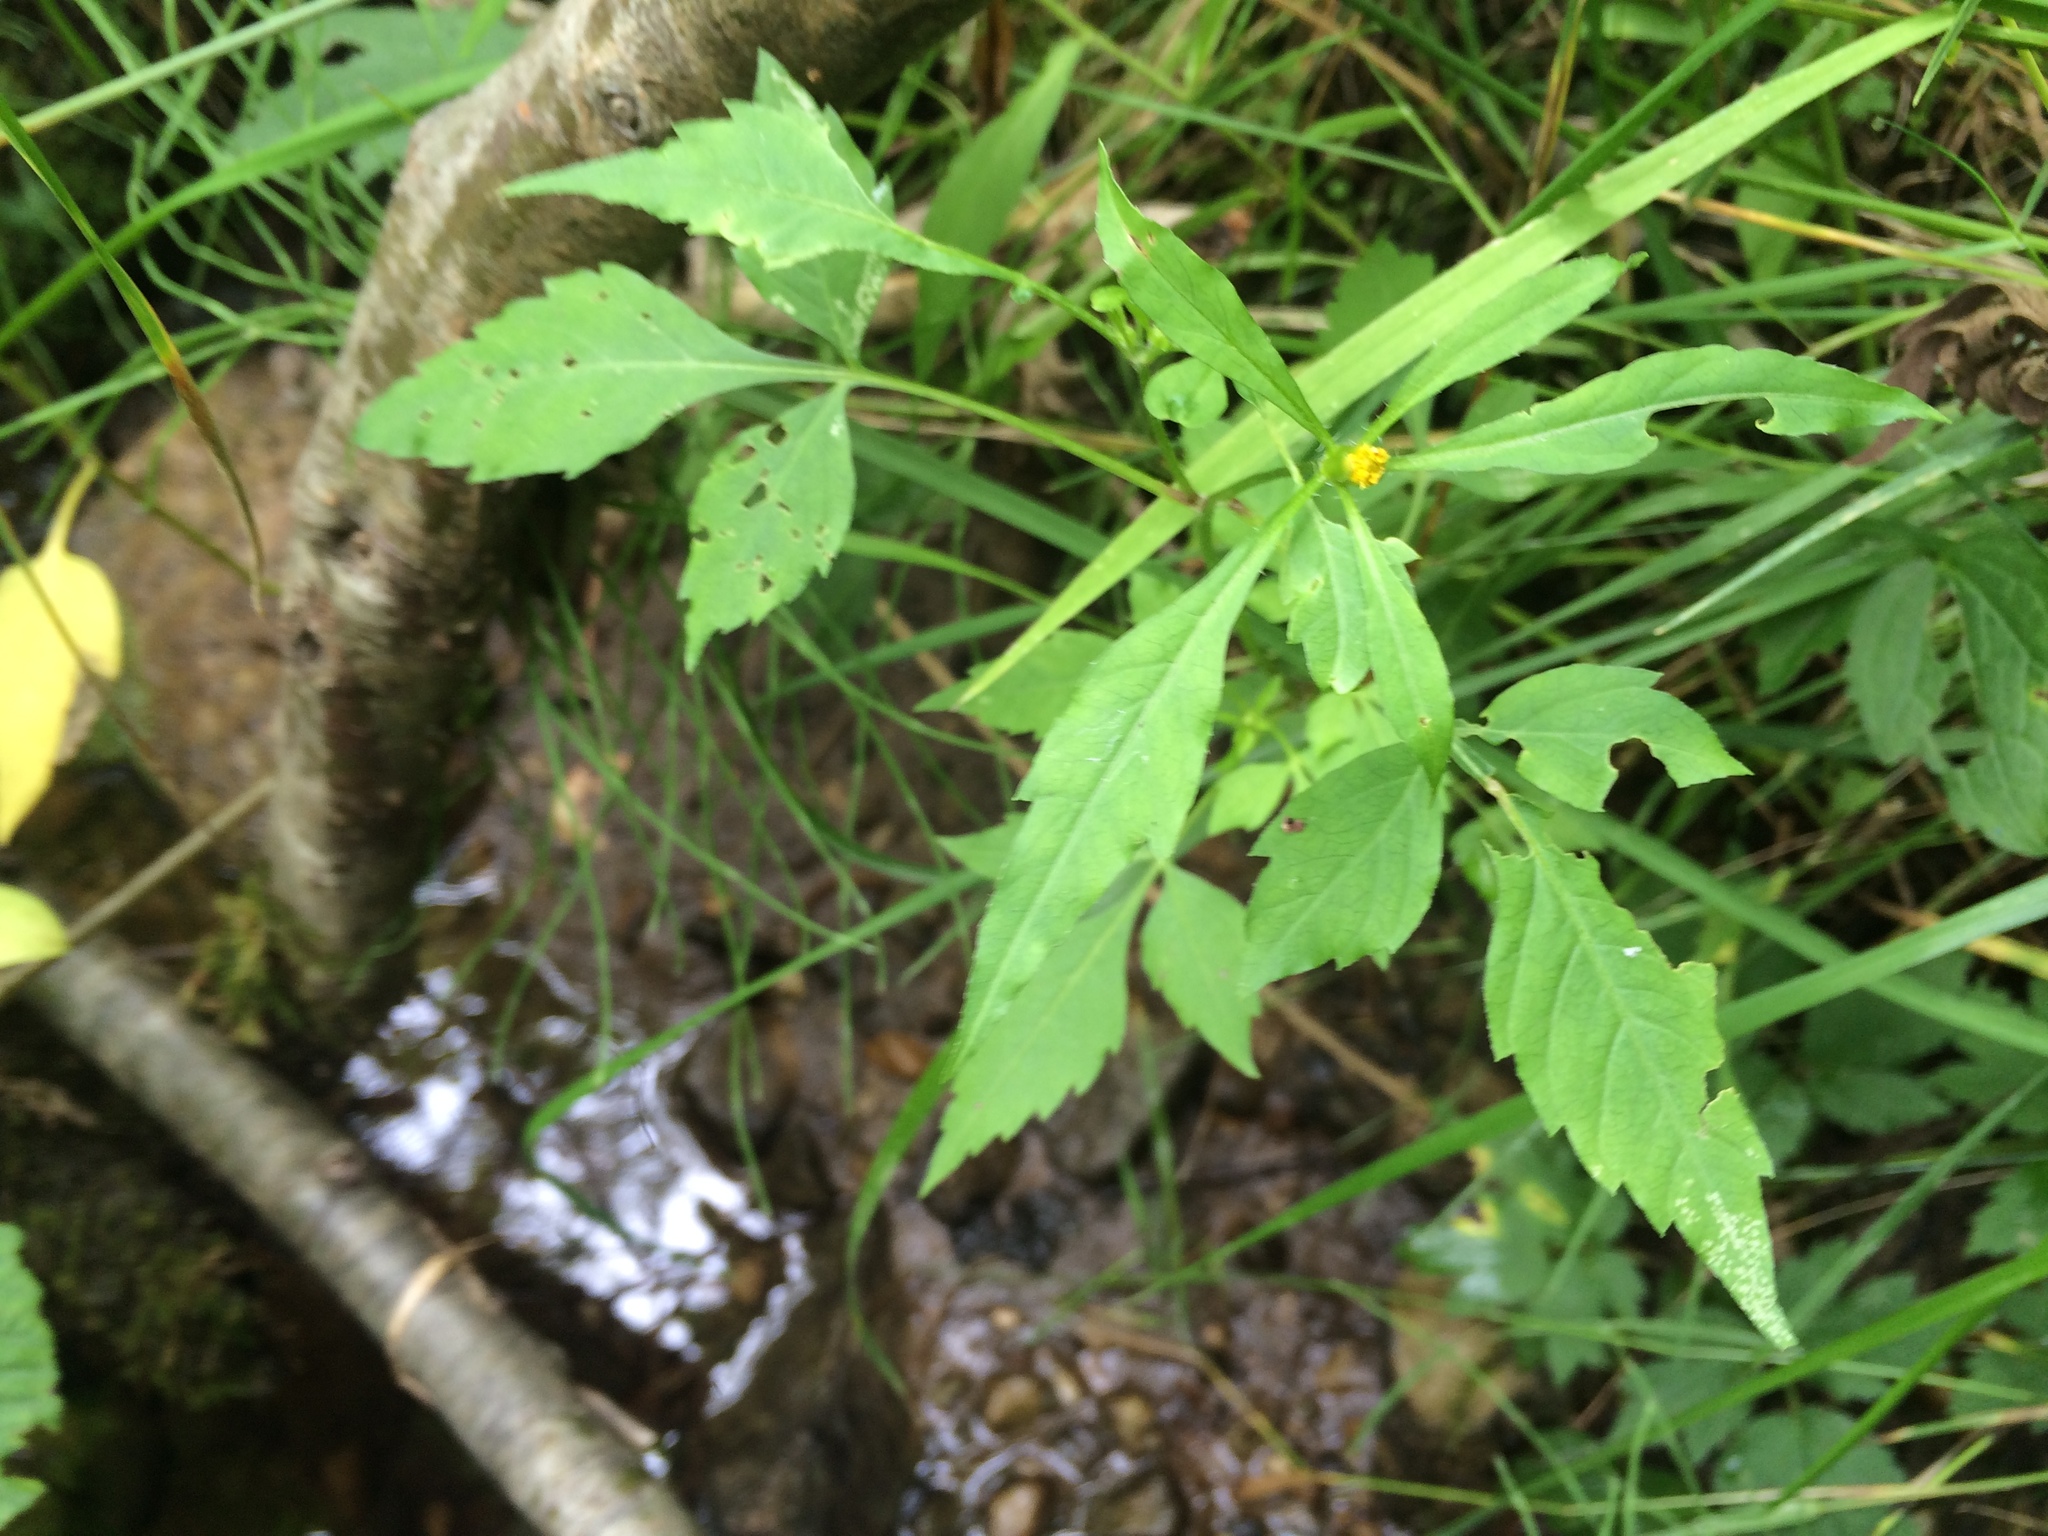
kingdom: Plantae
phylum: Tracheophyta
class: Magnoliopsida
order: Asterales
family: Asteraceae
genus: Bidens
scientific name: Bidens frondosa
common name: Beggarticks
